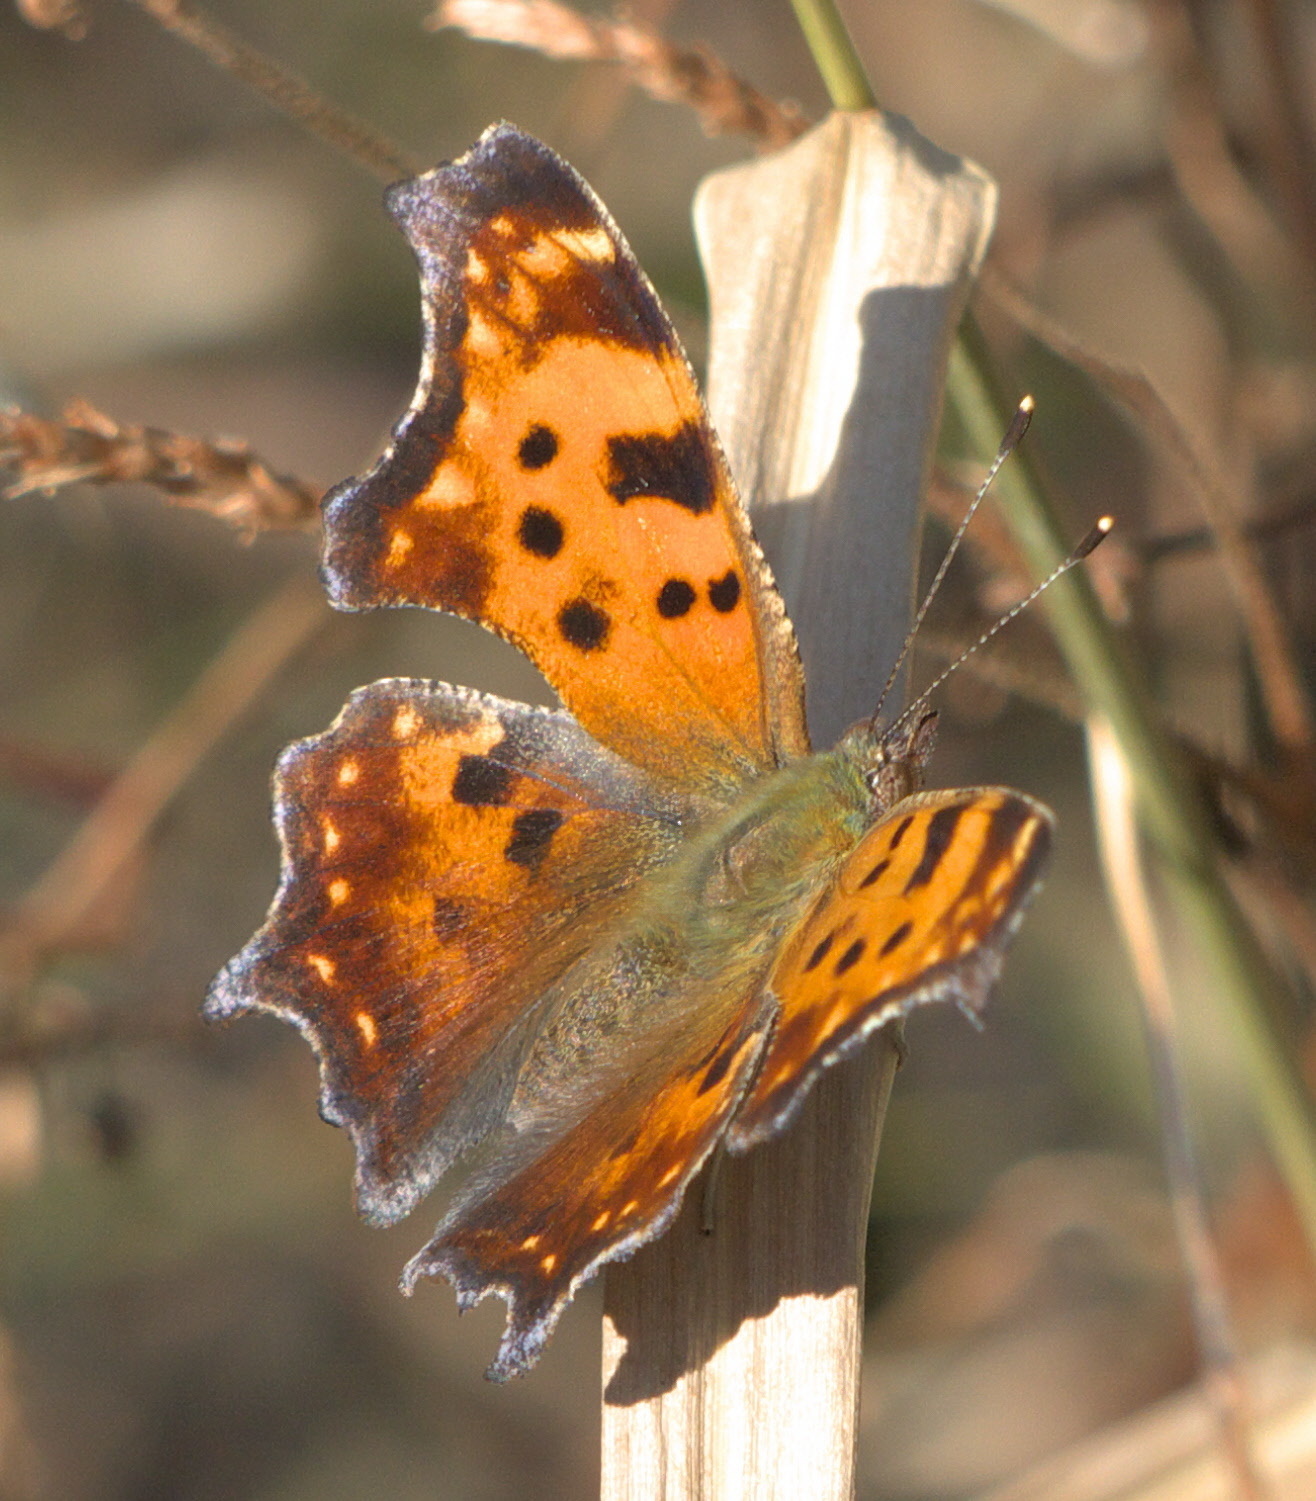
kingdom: Animalia
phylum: Arthropoda
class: Insecta
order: Lepidoptera
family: Nymphalidae
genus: Polygonia
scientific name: Polygonia comma
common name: Eastern comma
